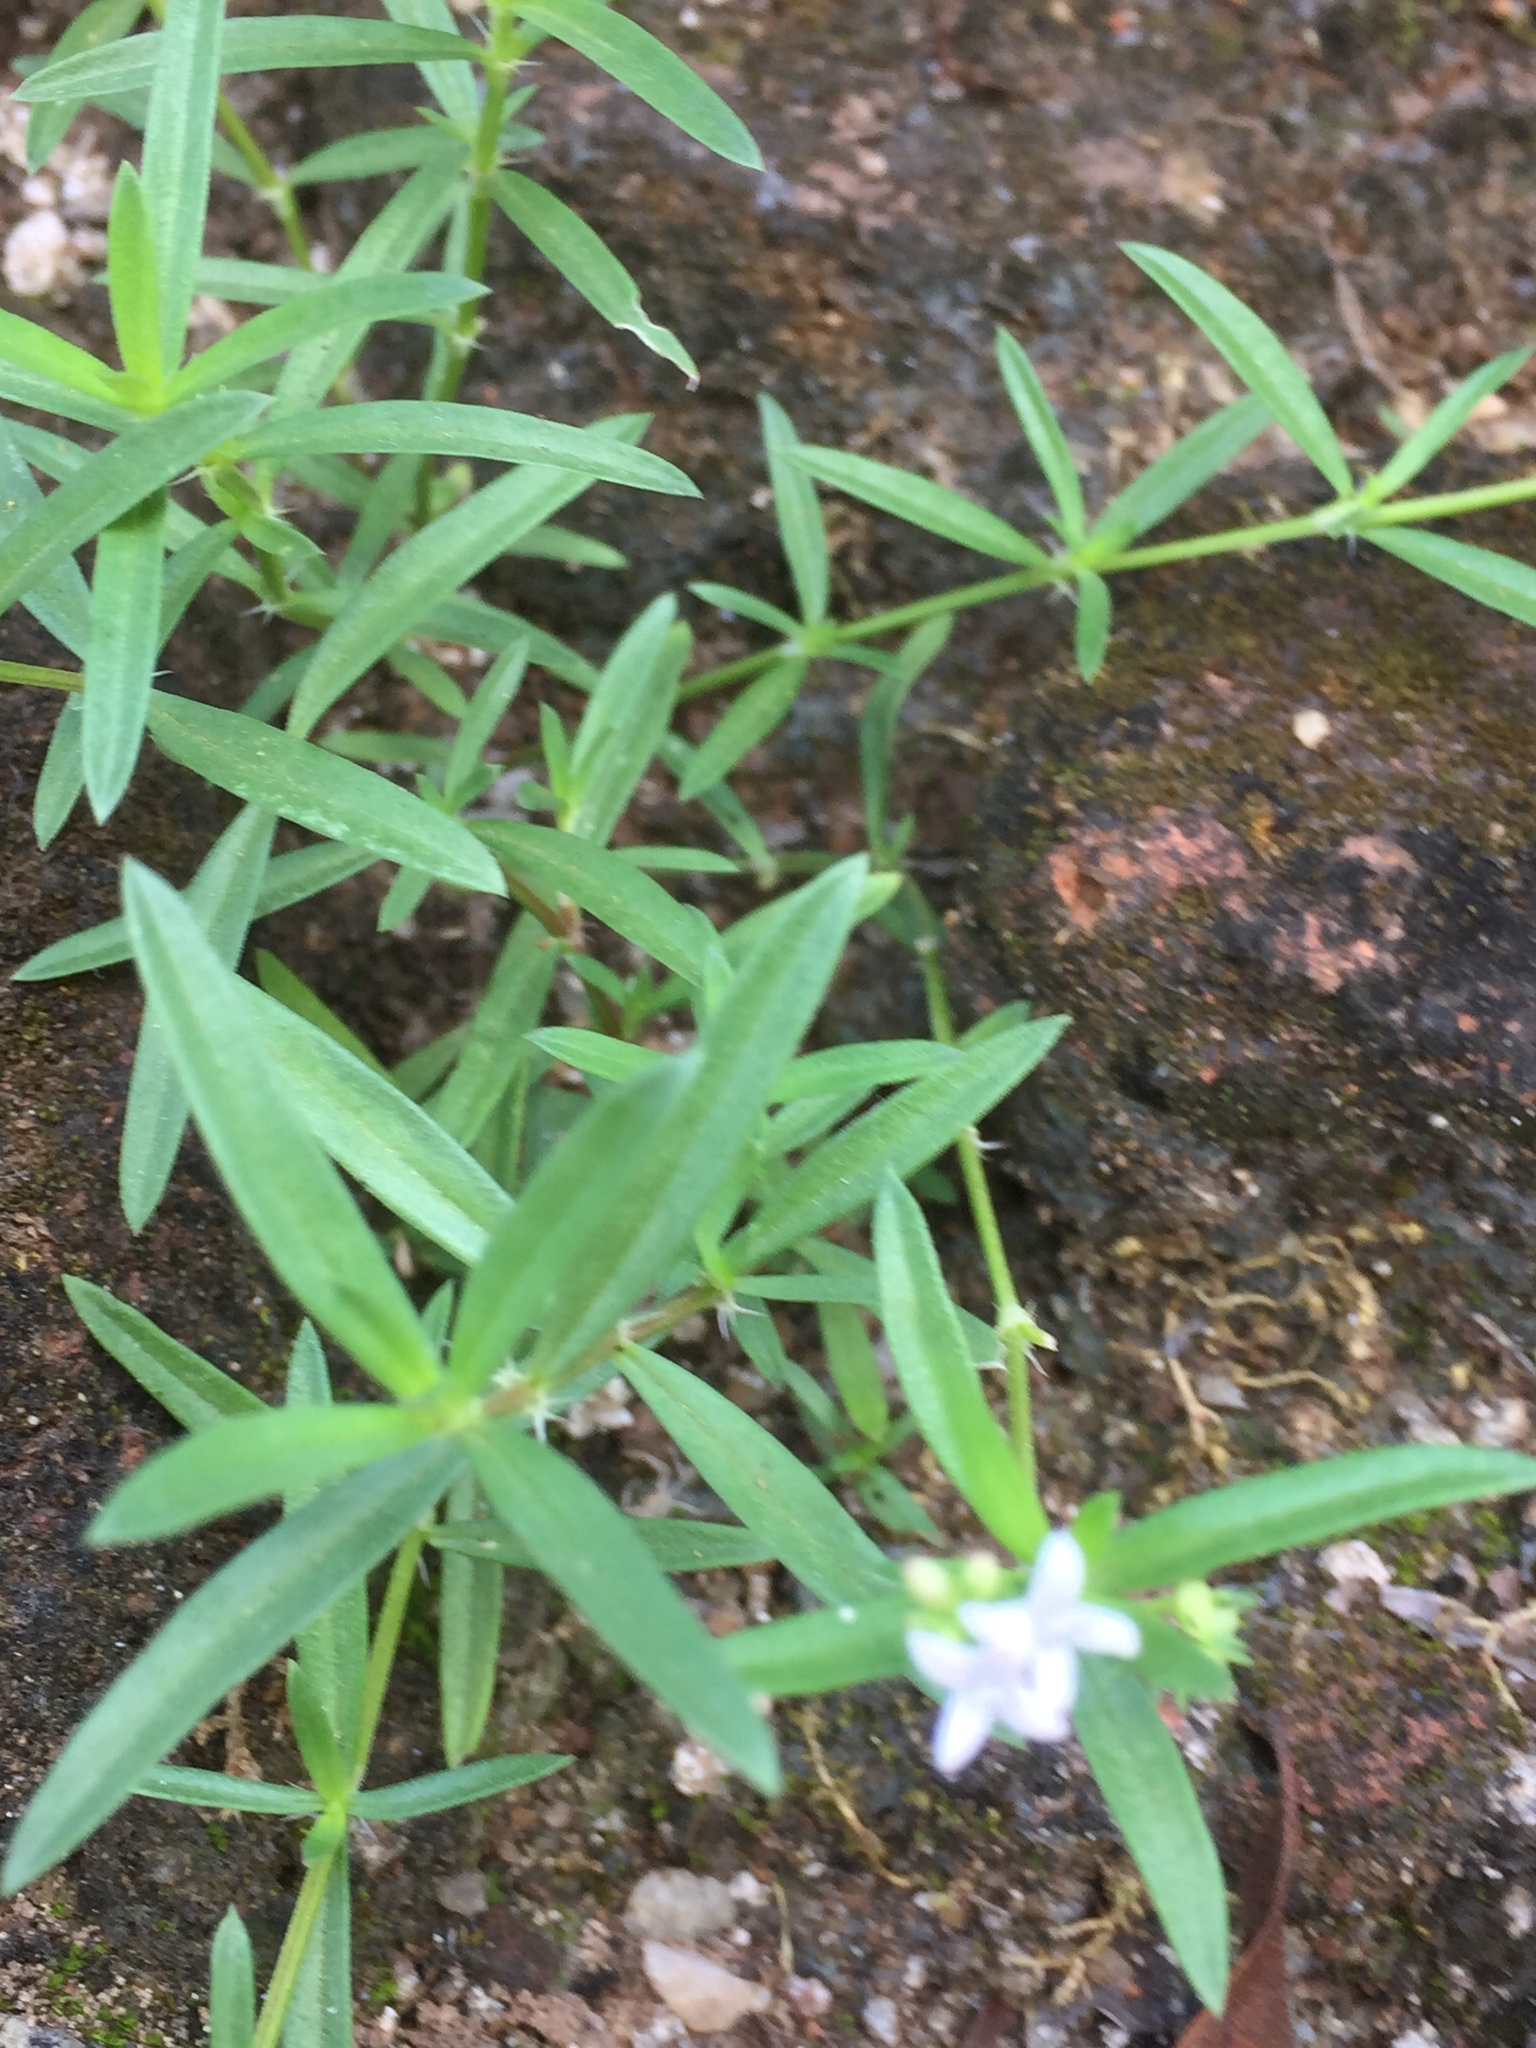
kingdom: Plantae
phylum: Tracheophyta
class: Magnoliopsida
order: Gentianales
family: Rubiaceae
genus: Hexasepalum
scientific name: Hexasepalum teres
